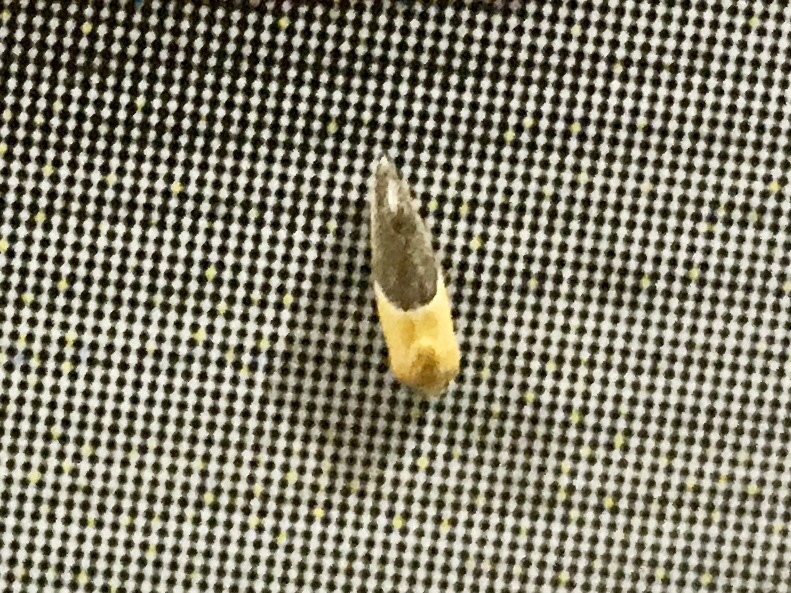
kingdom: Animalia
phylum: Arthropoda
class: Insecta
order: Lepidoptera
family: Noctuidae
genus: Acontia
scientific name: Acontia clausula
